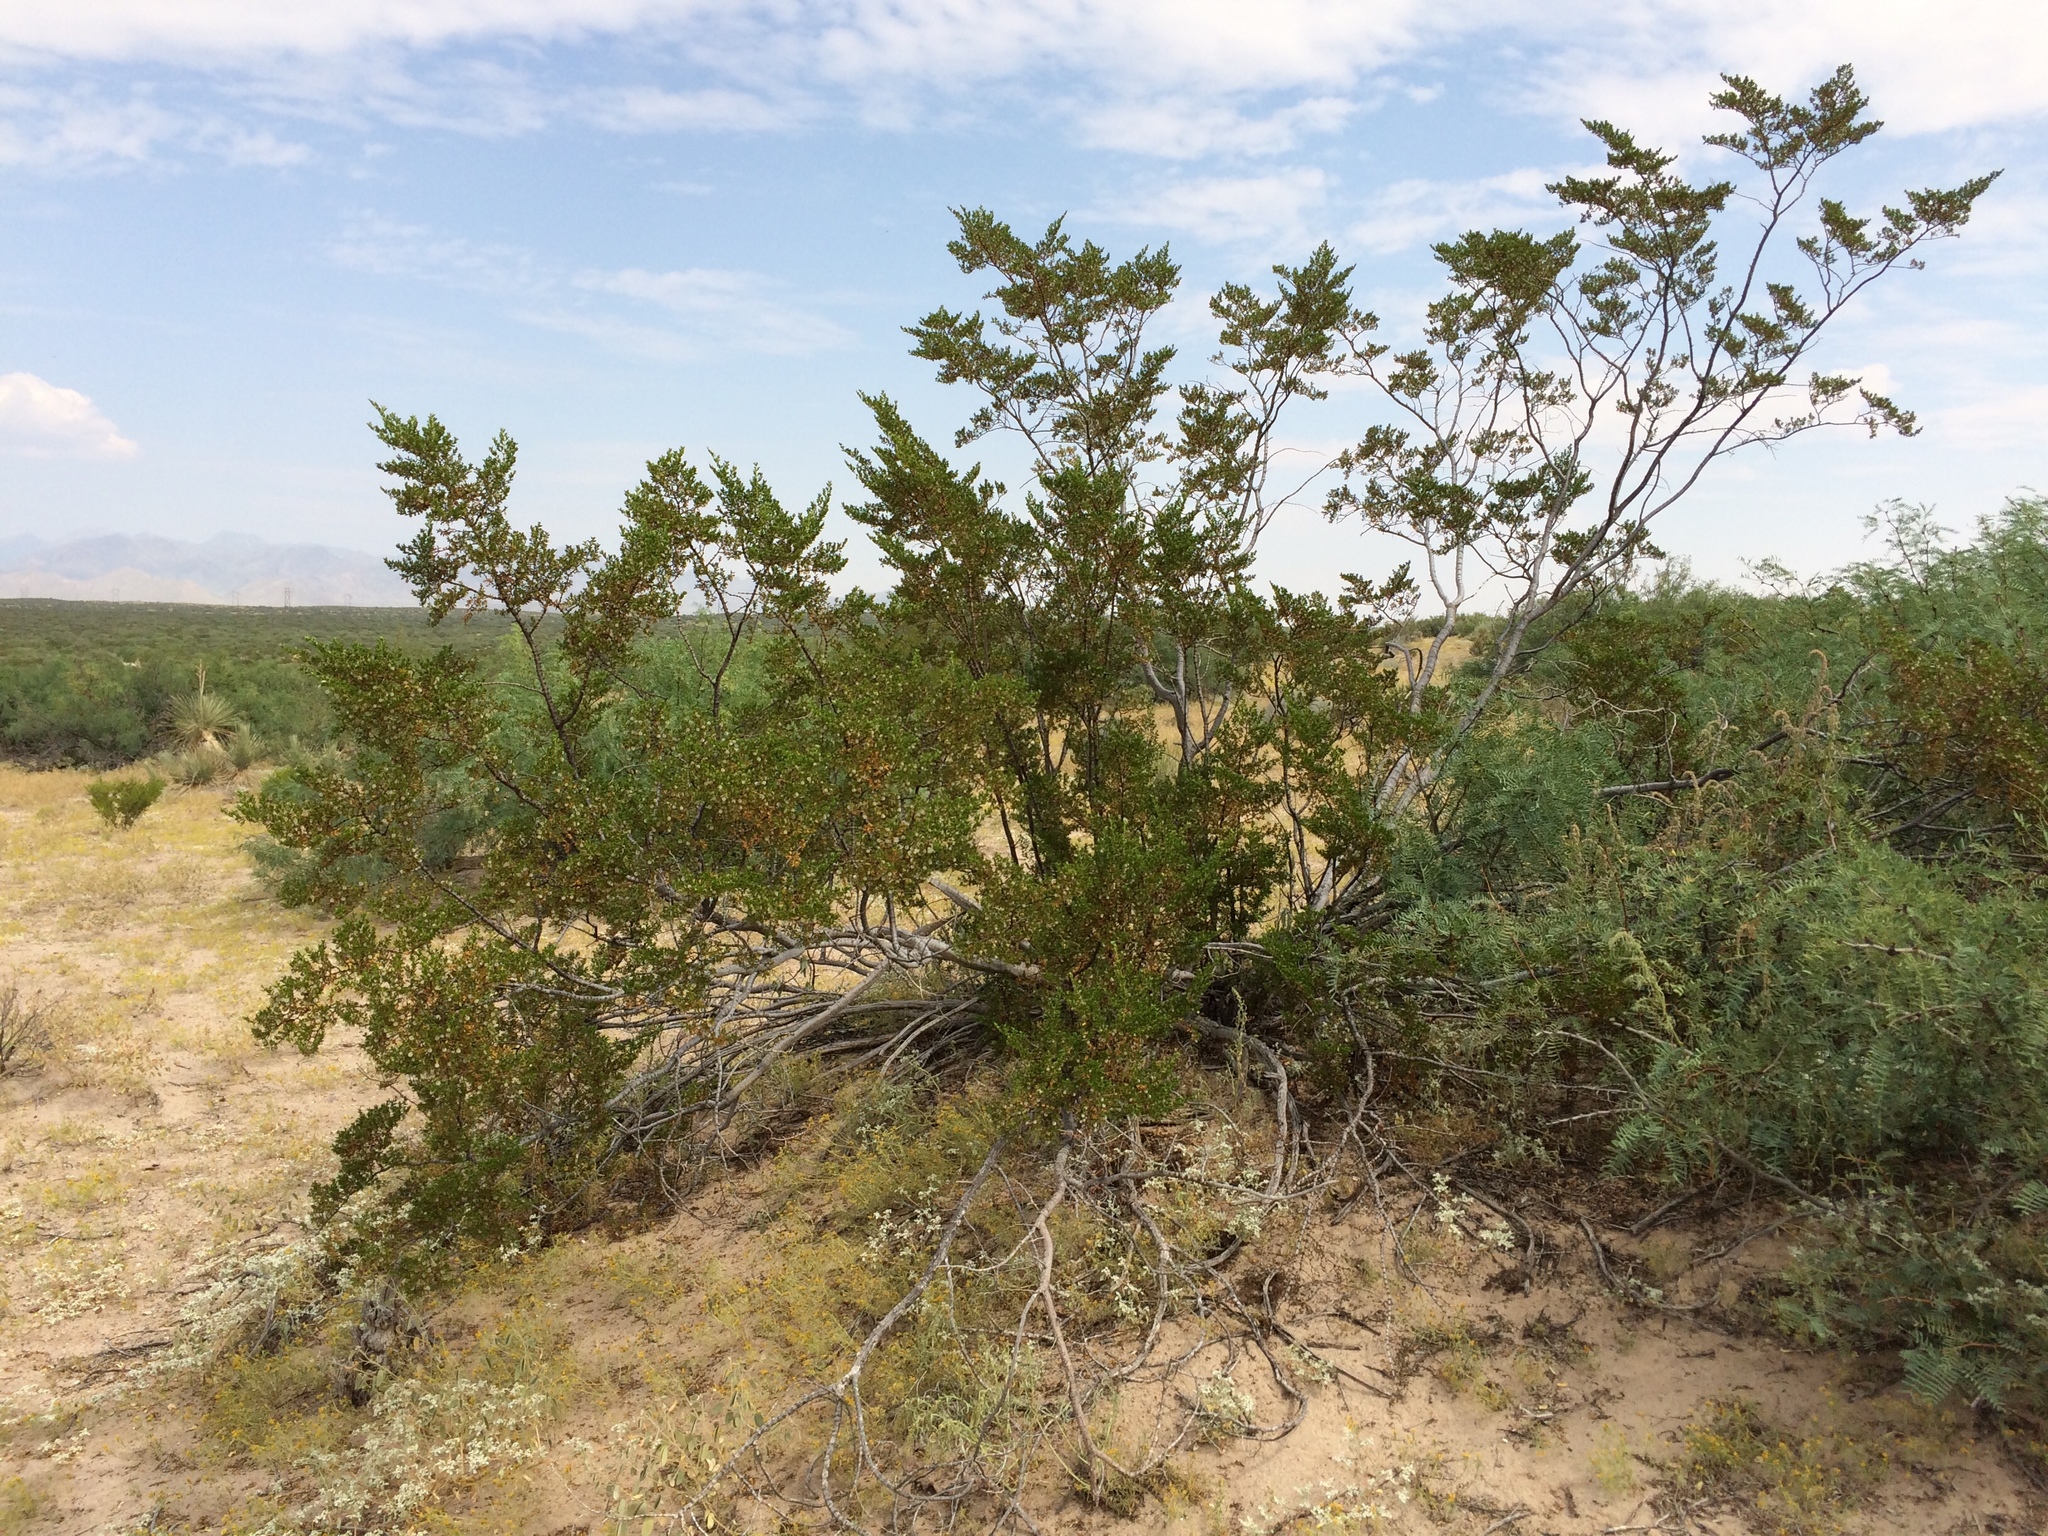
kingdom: Plantae
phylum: Tracheophyta
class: Magnoliopsida
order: Zygophyllales
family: Zygophyllaceae
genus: Larrea
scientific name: Larrea tridentata
